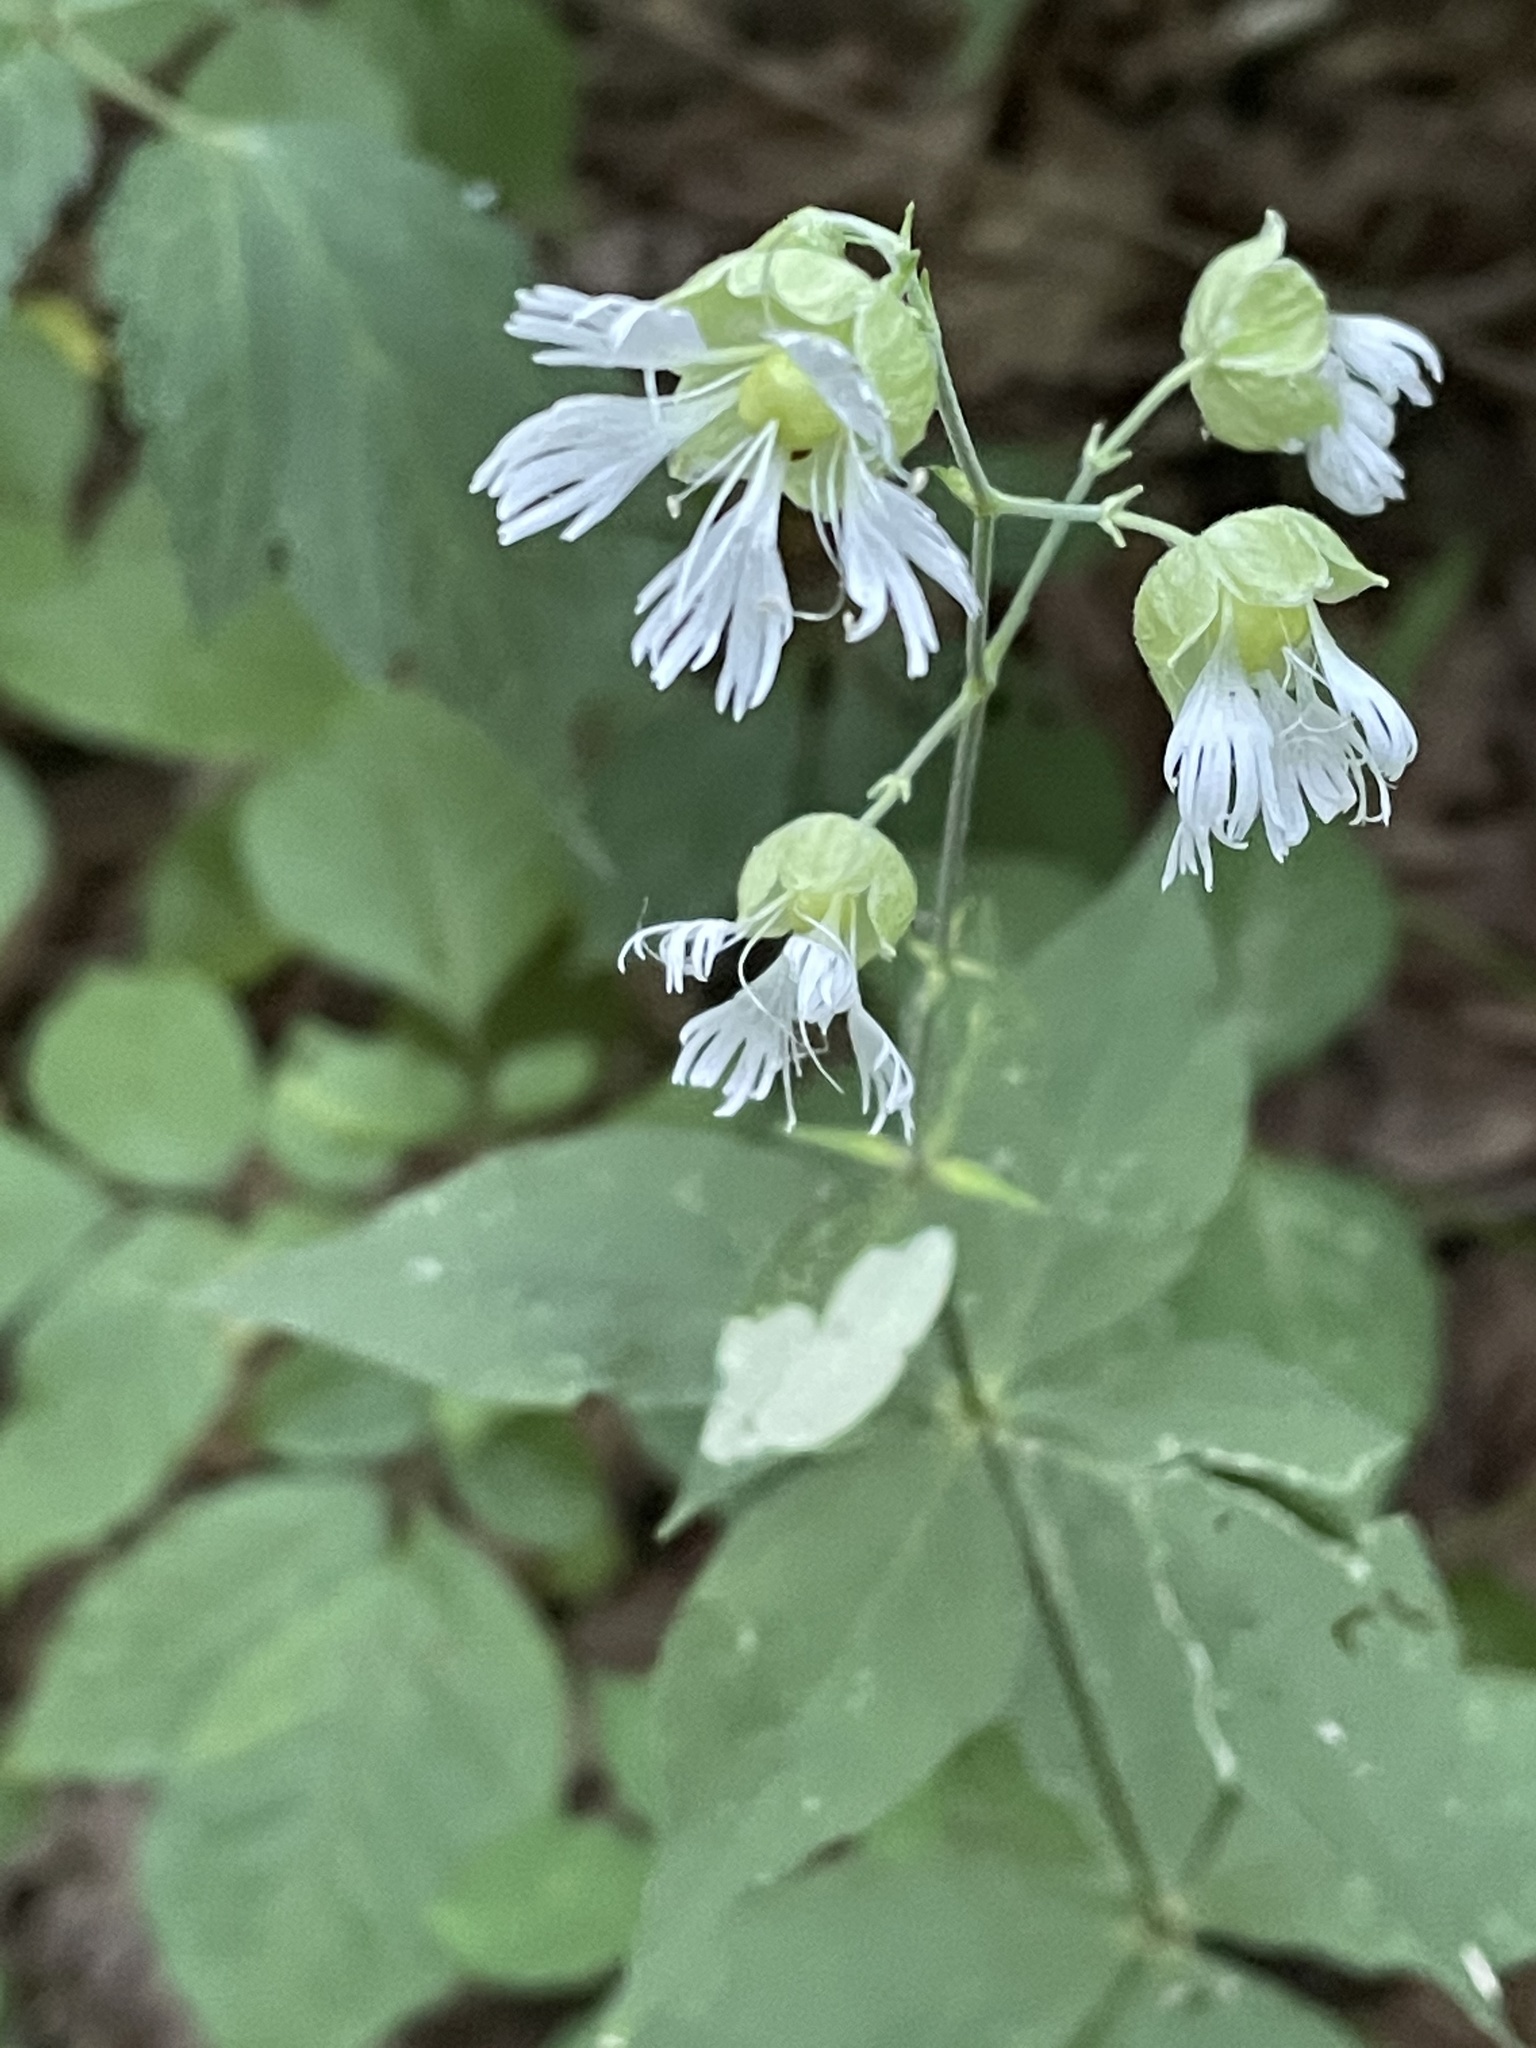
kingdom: Plantae
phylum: Tracheophyta
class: Magnoliopsida
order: Caryophyllales
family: Caryophyllaceae
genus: Silene
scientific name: Silene stellata
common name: Starry campion
